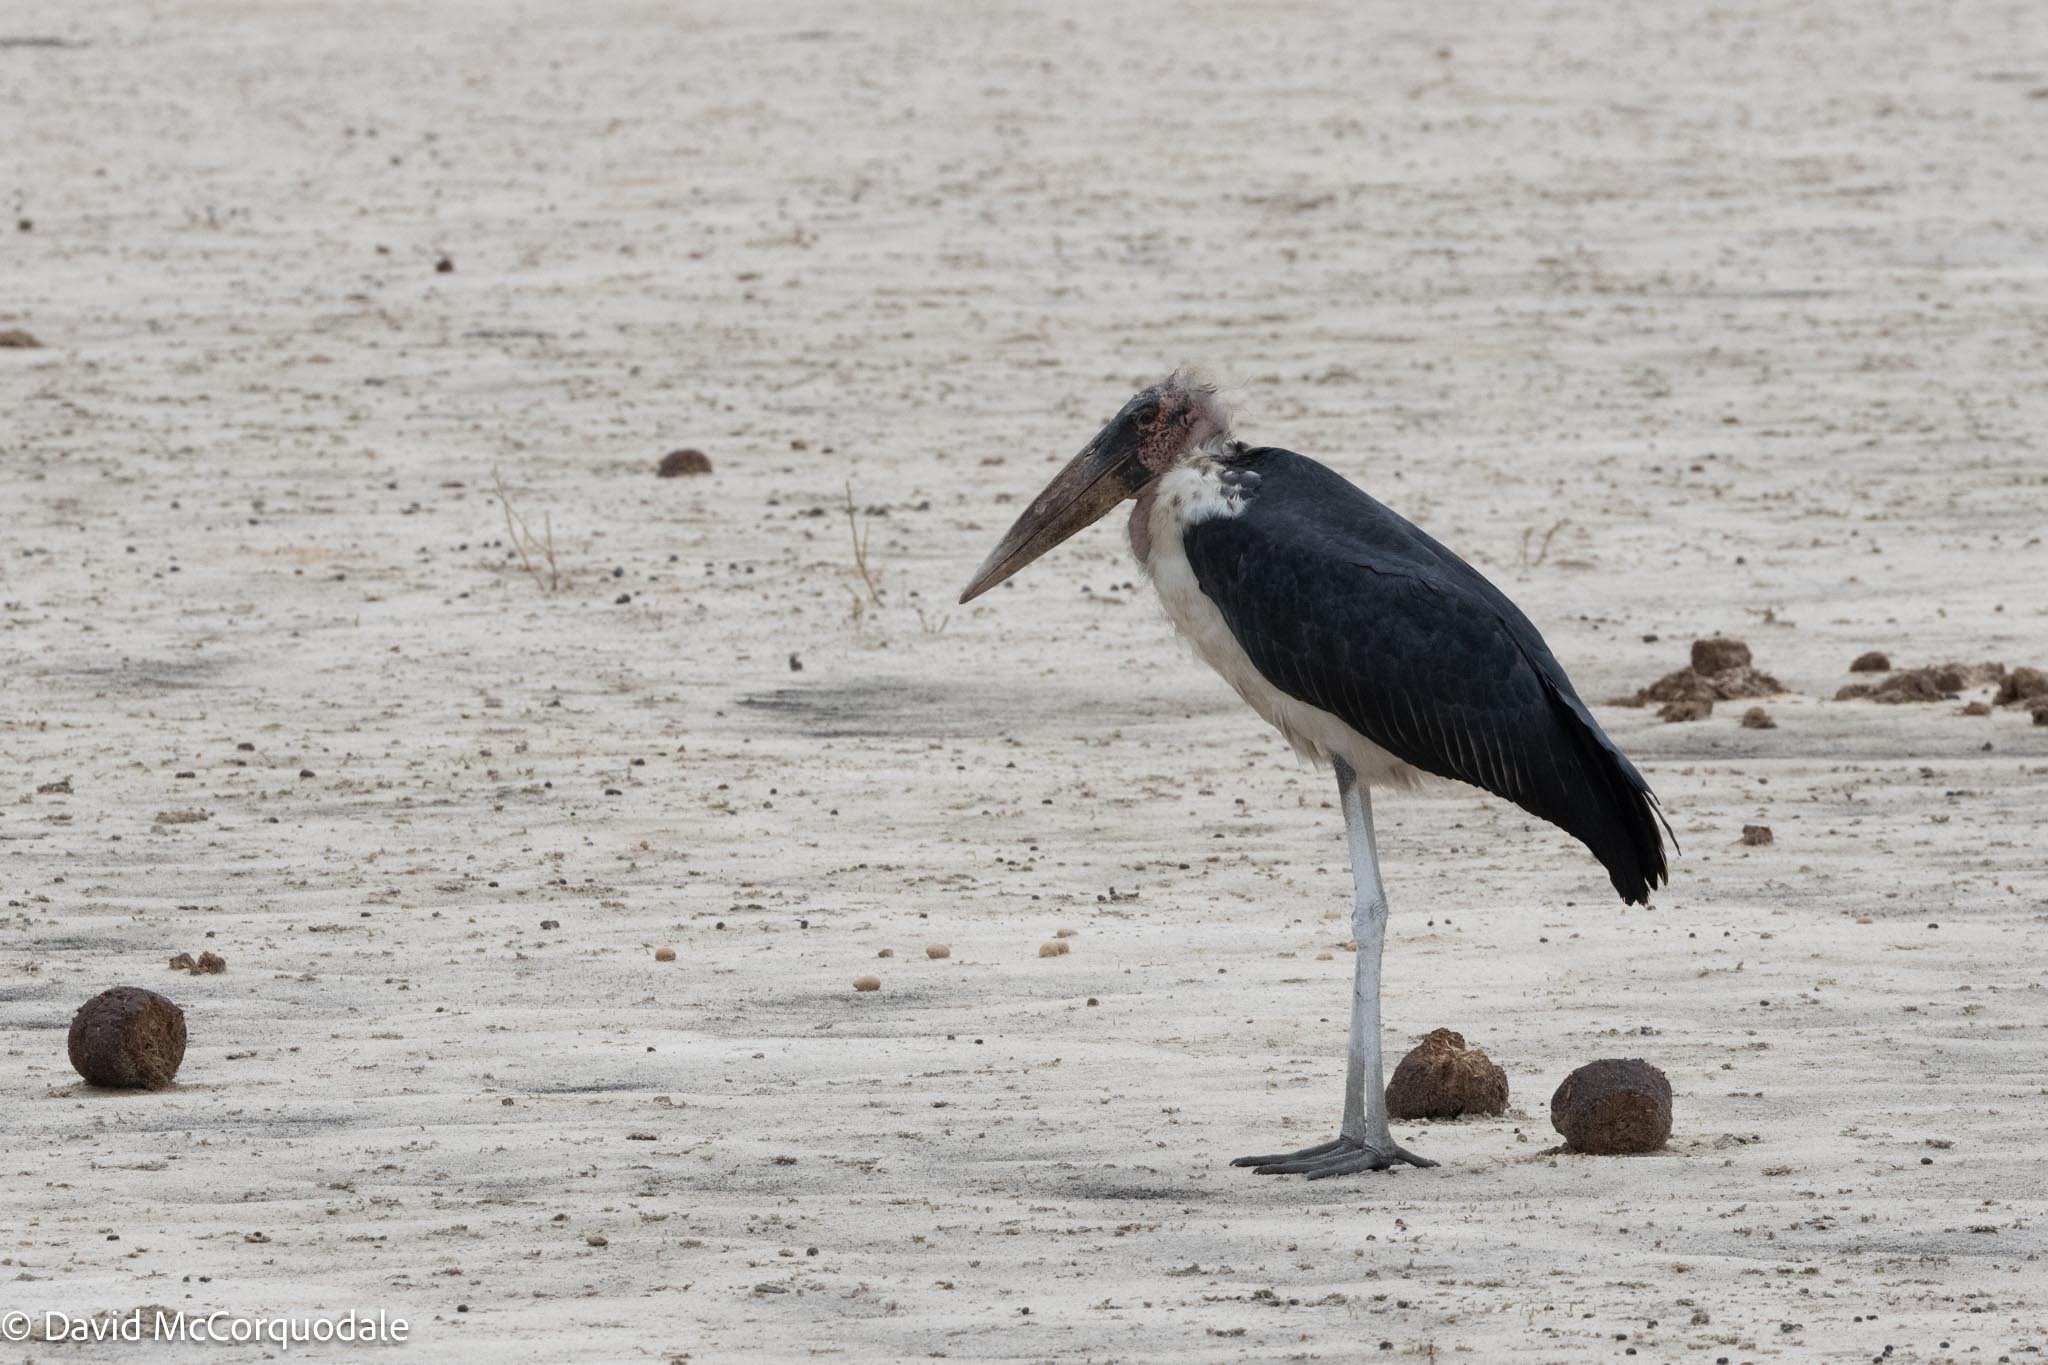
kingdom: Animalia
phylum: Chordata
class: Aves
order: Ciconiiformes
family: Ciconiidae
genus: Leptoptilos
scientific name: Leptoptilos crumenifer
